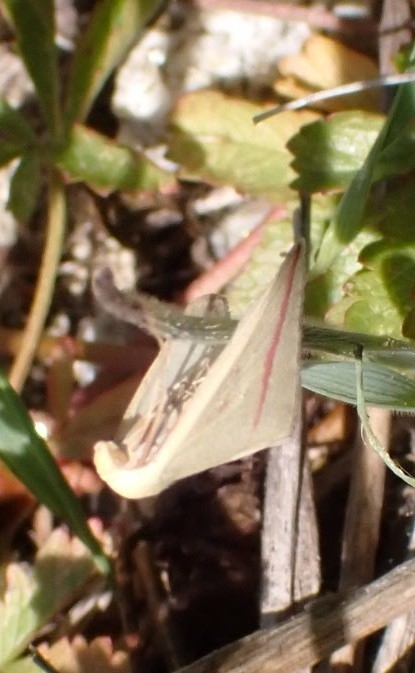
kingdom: Animalia
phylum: Arthropoda
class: Insecta
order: Lepidoptera
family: Geometridae
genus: Rhodometra
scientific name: Rhodometra sacraria
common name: Vestal
